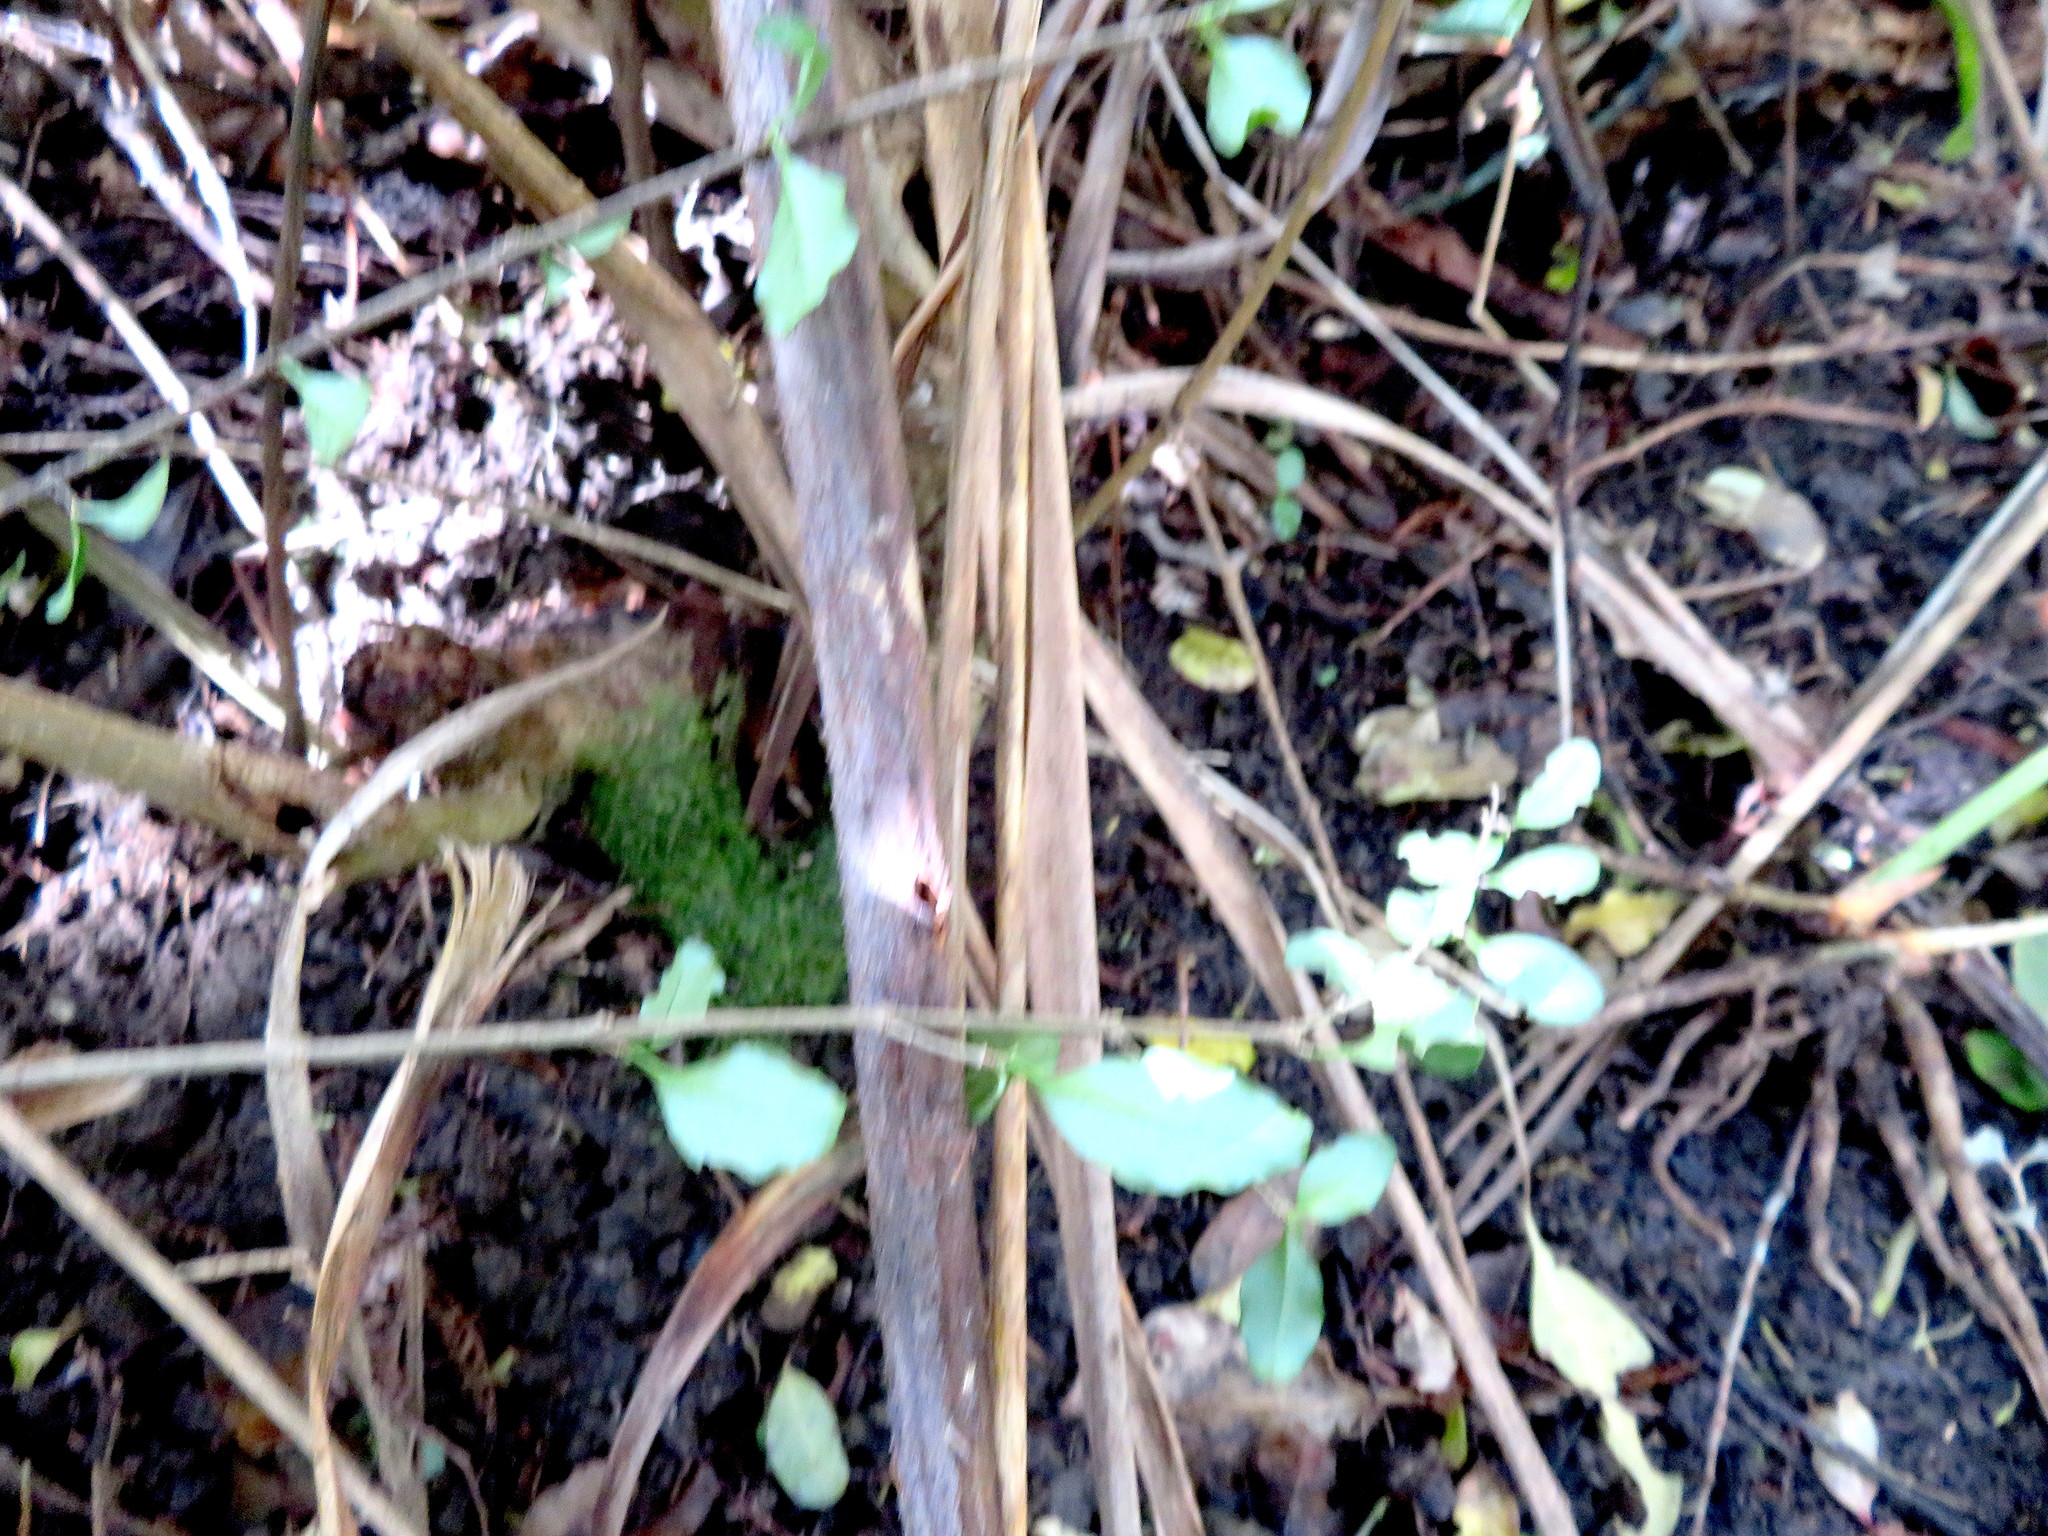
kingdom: Plantae
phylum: Tracheophyta
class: Magnoliopsida
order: Lamiales
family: Oleaceae
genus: Ligustrum
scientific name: Ligustrum sinense
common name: Chinese privet
